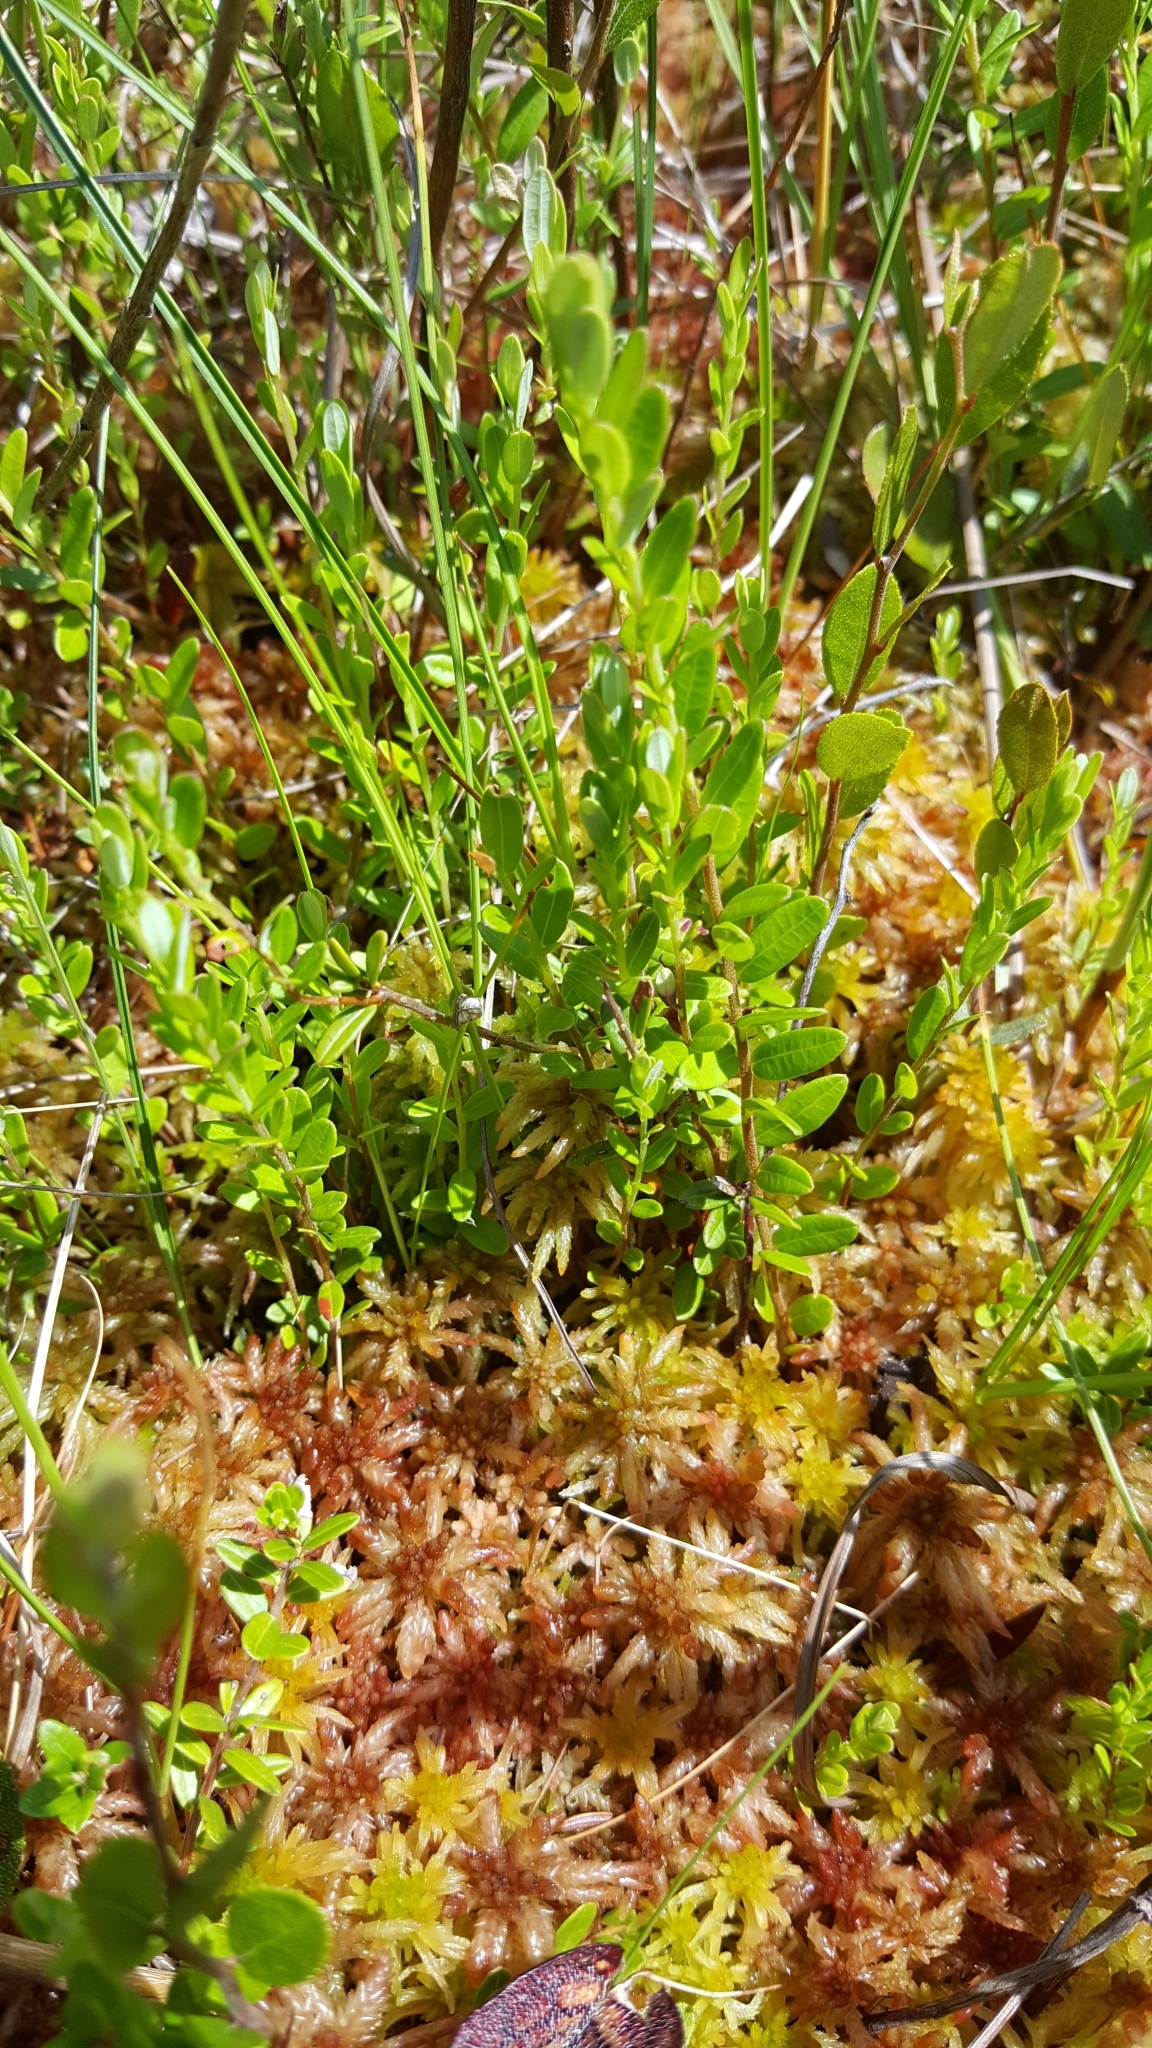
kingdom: Plantae
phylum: Tracheophyta
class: Magnoliopsida
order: Ericales
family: Ericaceae
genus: Vaccinium
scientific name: Vaccinium macrocarpon
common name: American cranberry
